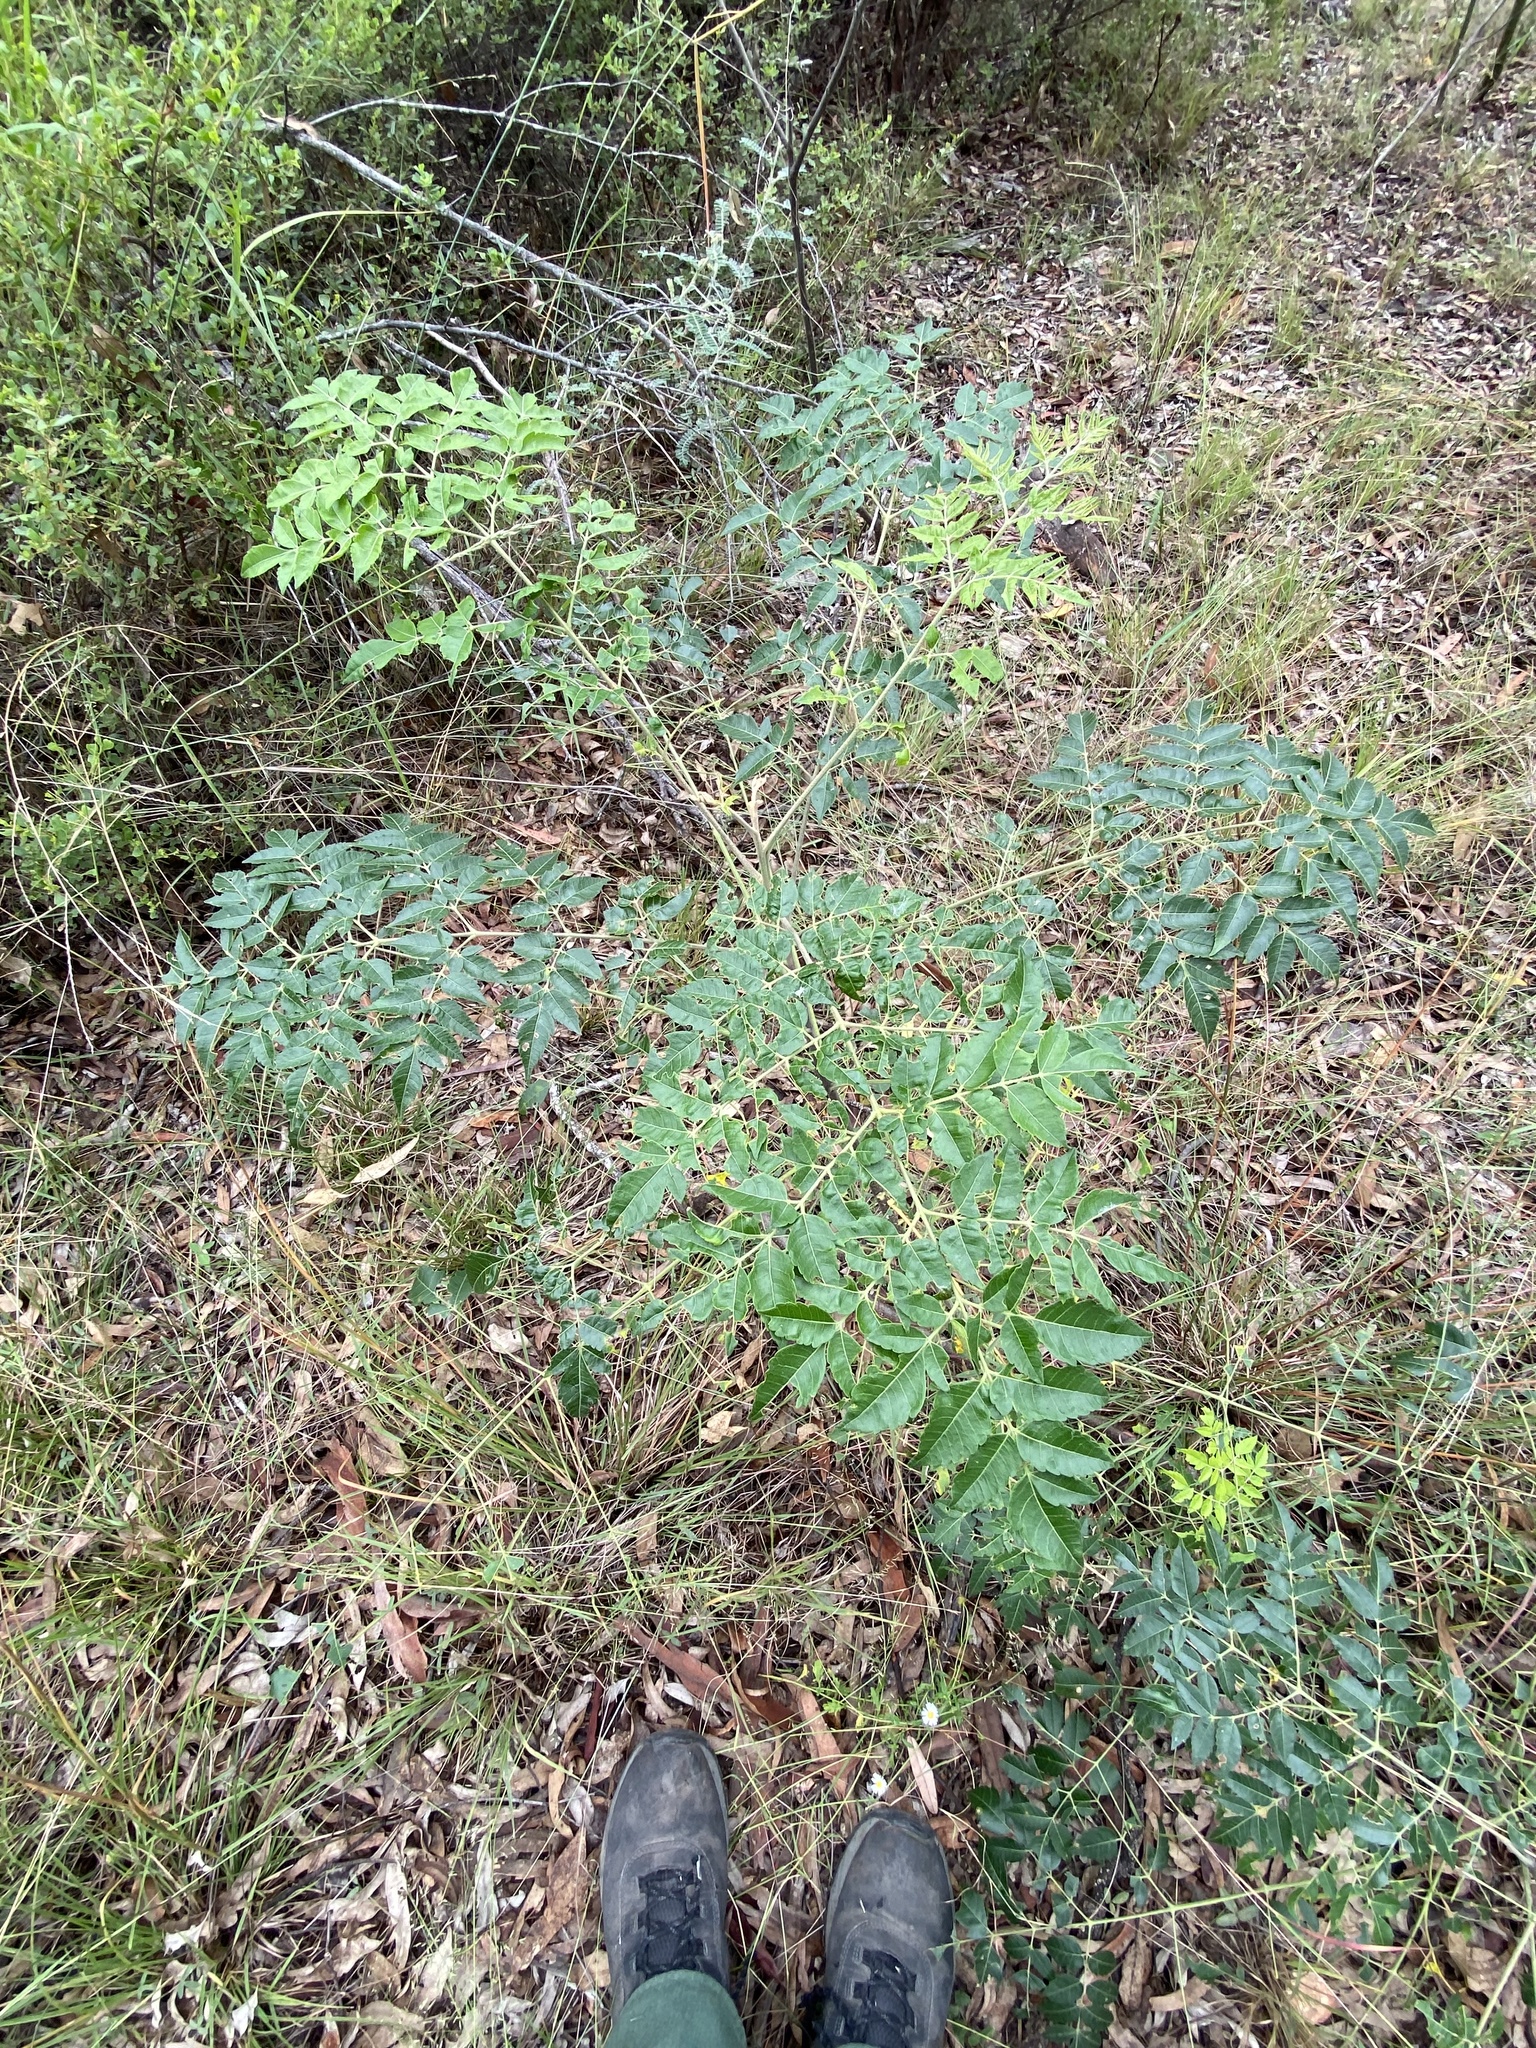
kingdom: Plantae
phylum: Tracheophyta
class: Magnoliopsida
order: Sapindales
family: Meliaceae
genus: Melia
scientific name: Melia azedarach
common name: Chinaberrytree
